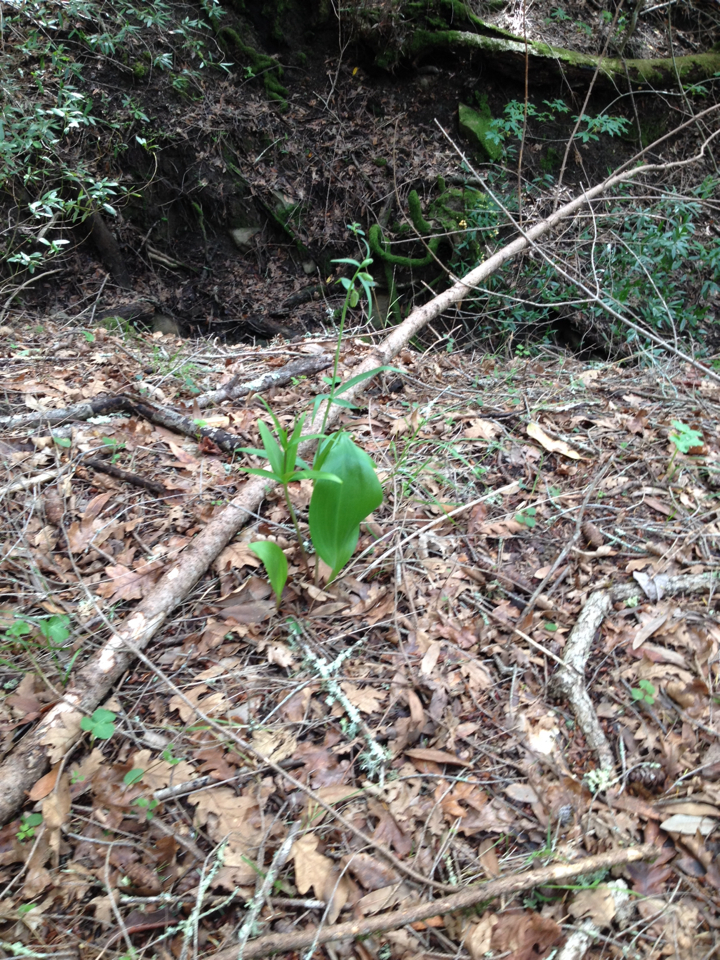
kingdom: Plantae
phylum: Tracheophyta
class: Liliopsida
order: Liliales
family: Liliaceae
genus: Fritillaria
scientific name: Fritillaria affinis
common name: Ojai fritillary
